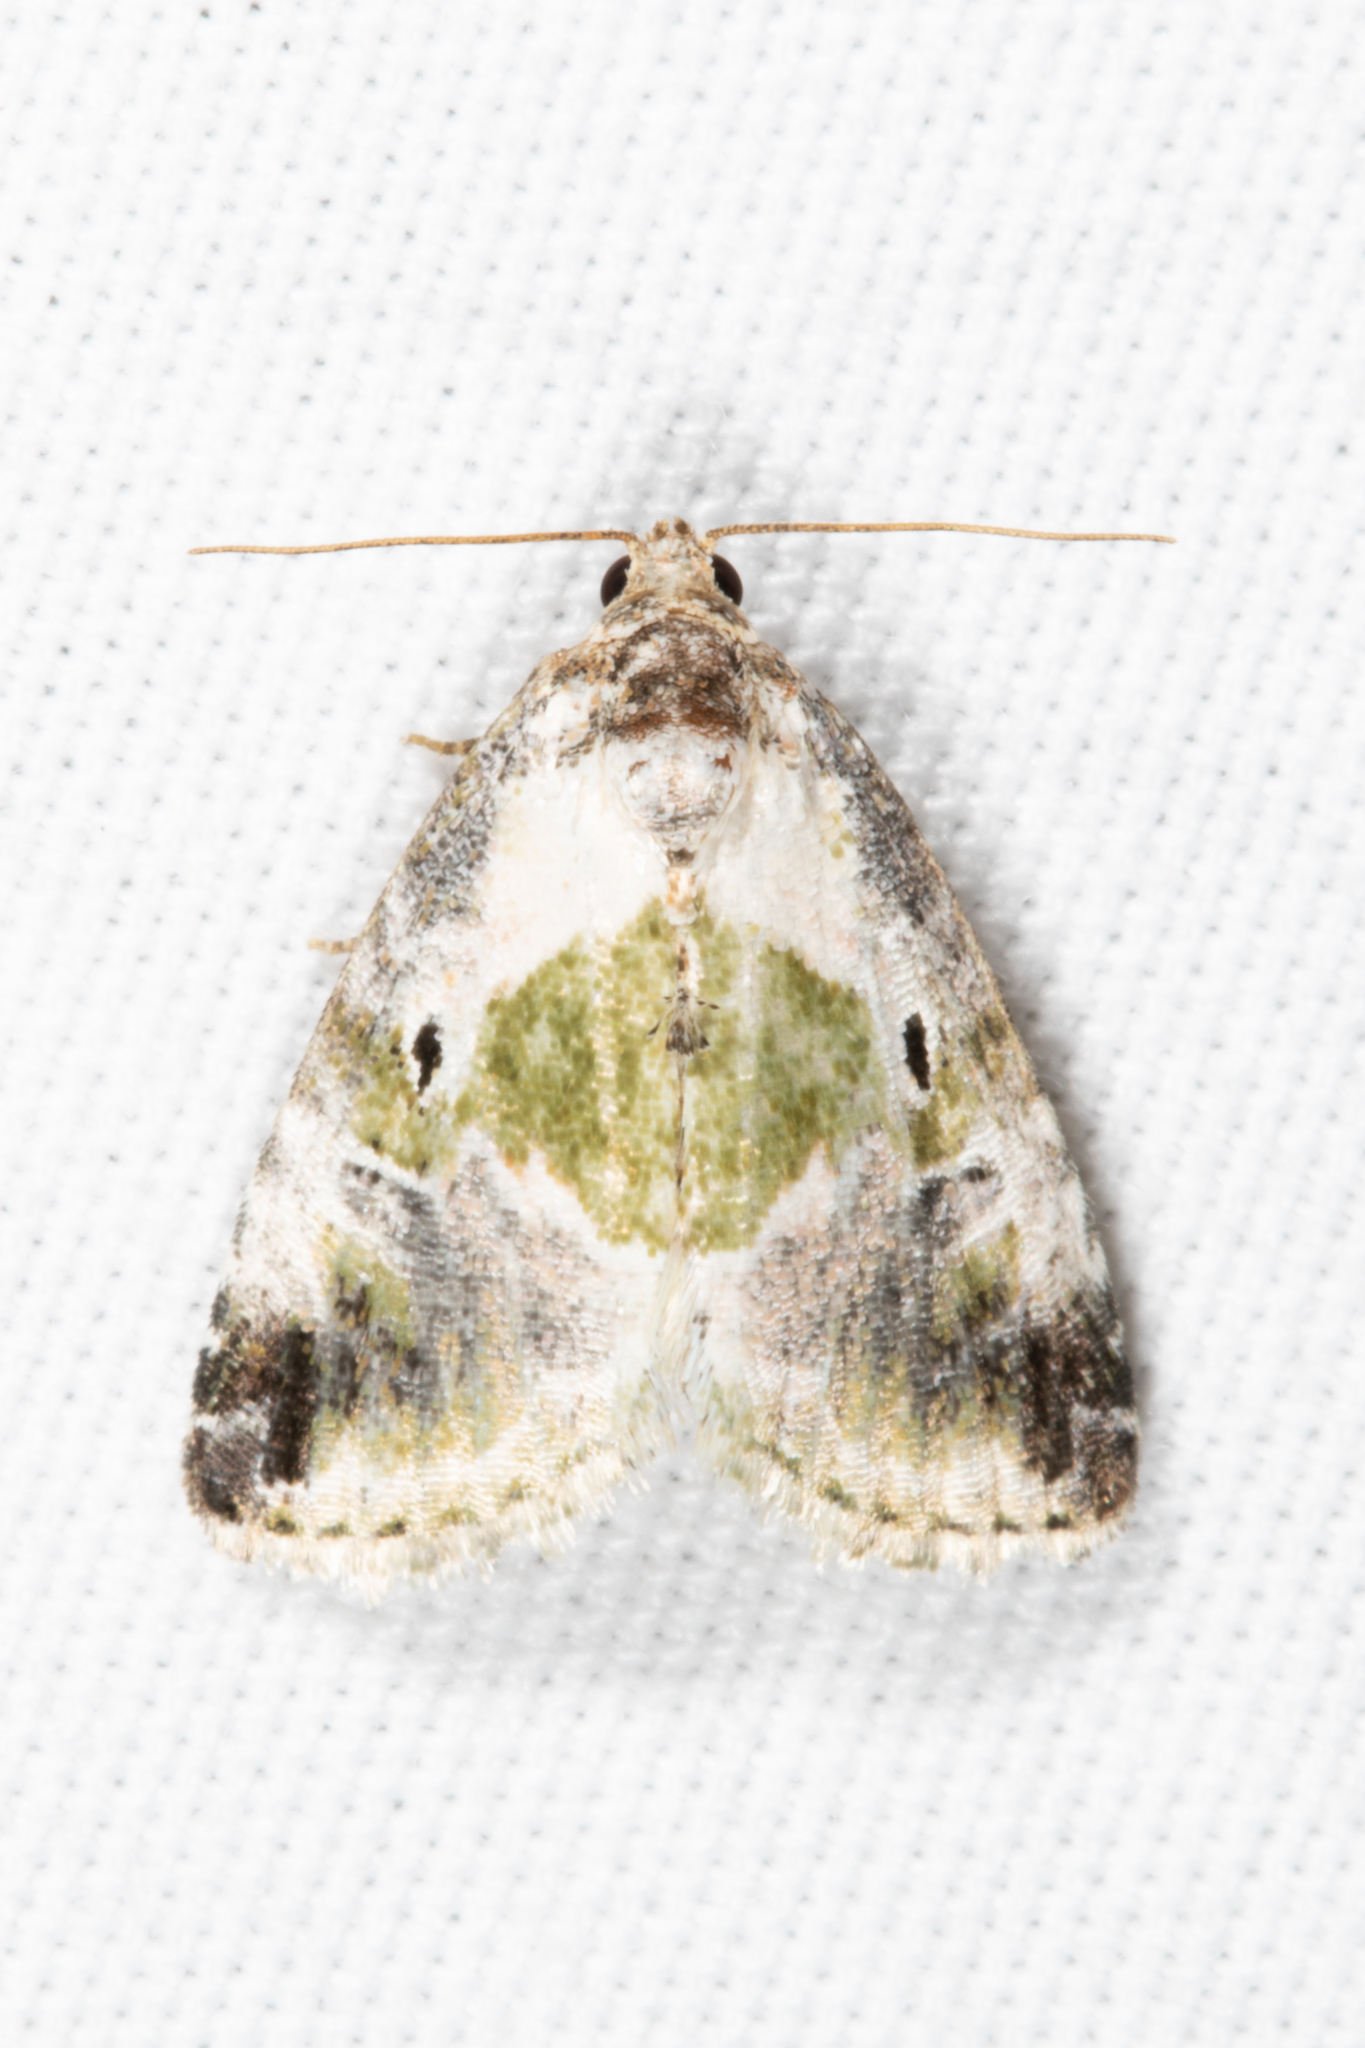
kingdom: Animalia
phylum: Arthropoda
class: Insecta
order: Lepidoptera
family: Noctuidae
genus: Maliattha
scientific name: Maliattha synochitis
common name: Black-dotted glyph
